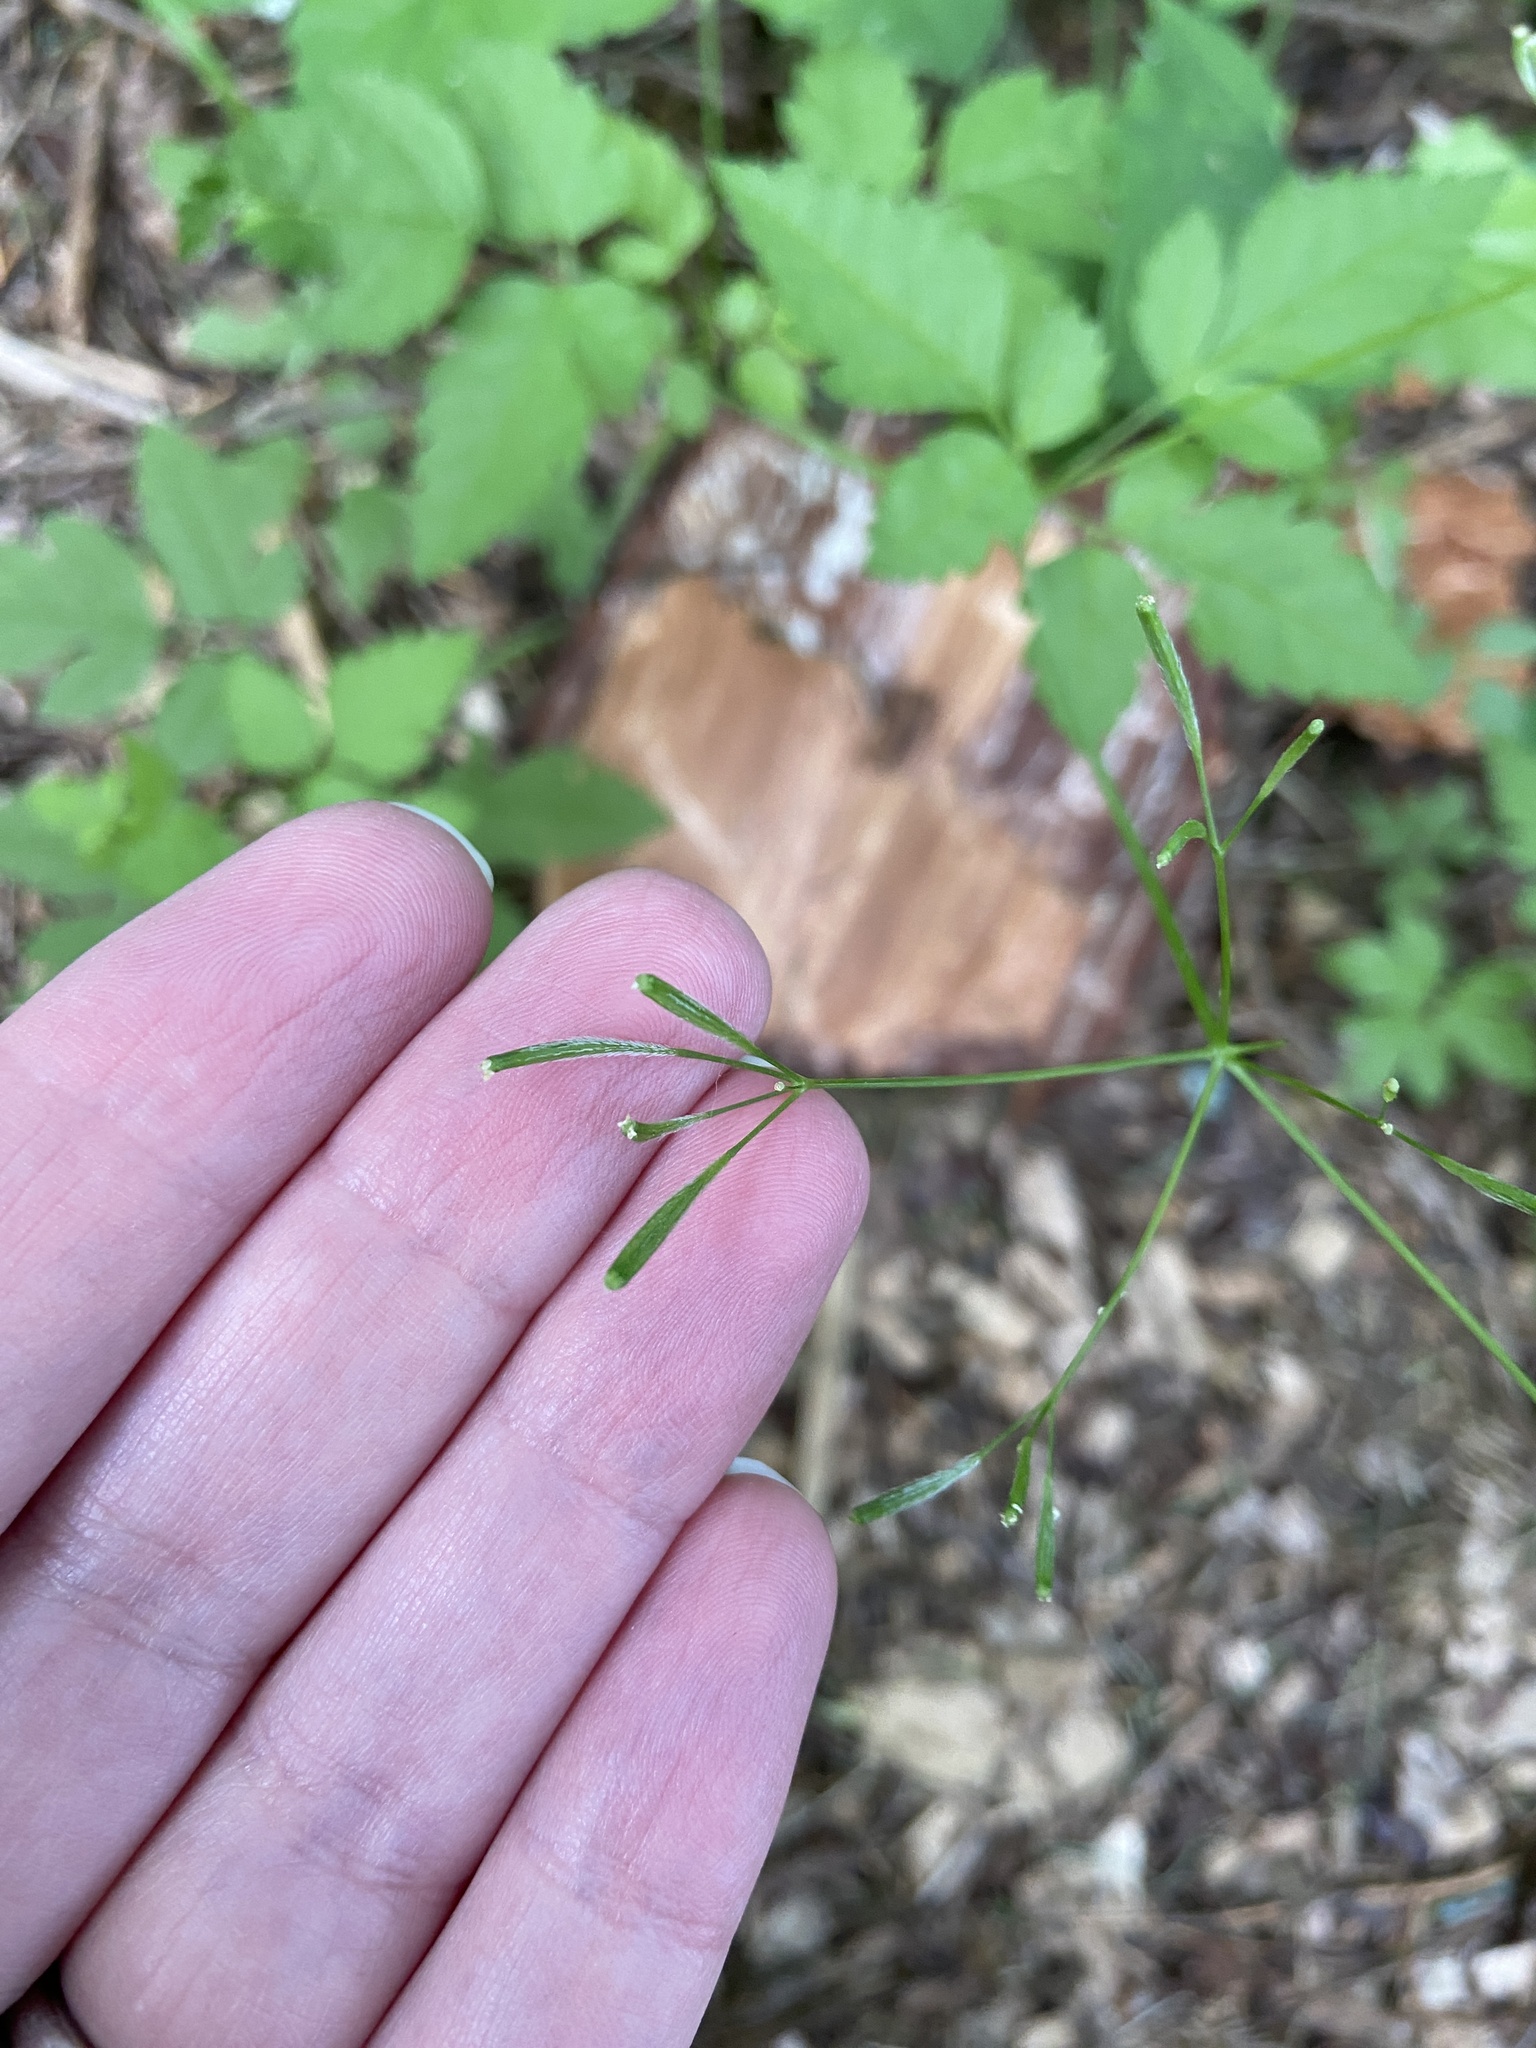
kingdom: Plantae
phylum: Tracheophyta
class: Magnoliopsida
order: Apiales
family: Apiaceae
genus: Osmorhiza
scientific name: Osmorhiza berteroi
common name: Mountain sweet cicely
